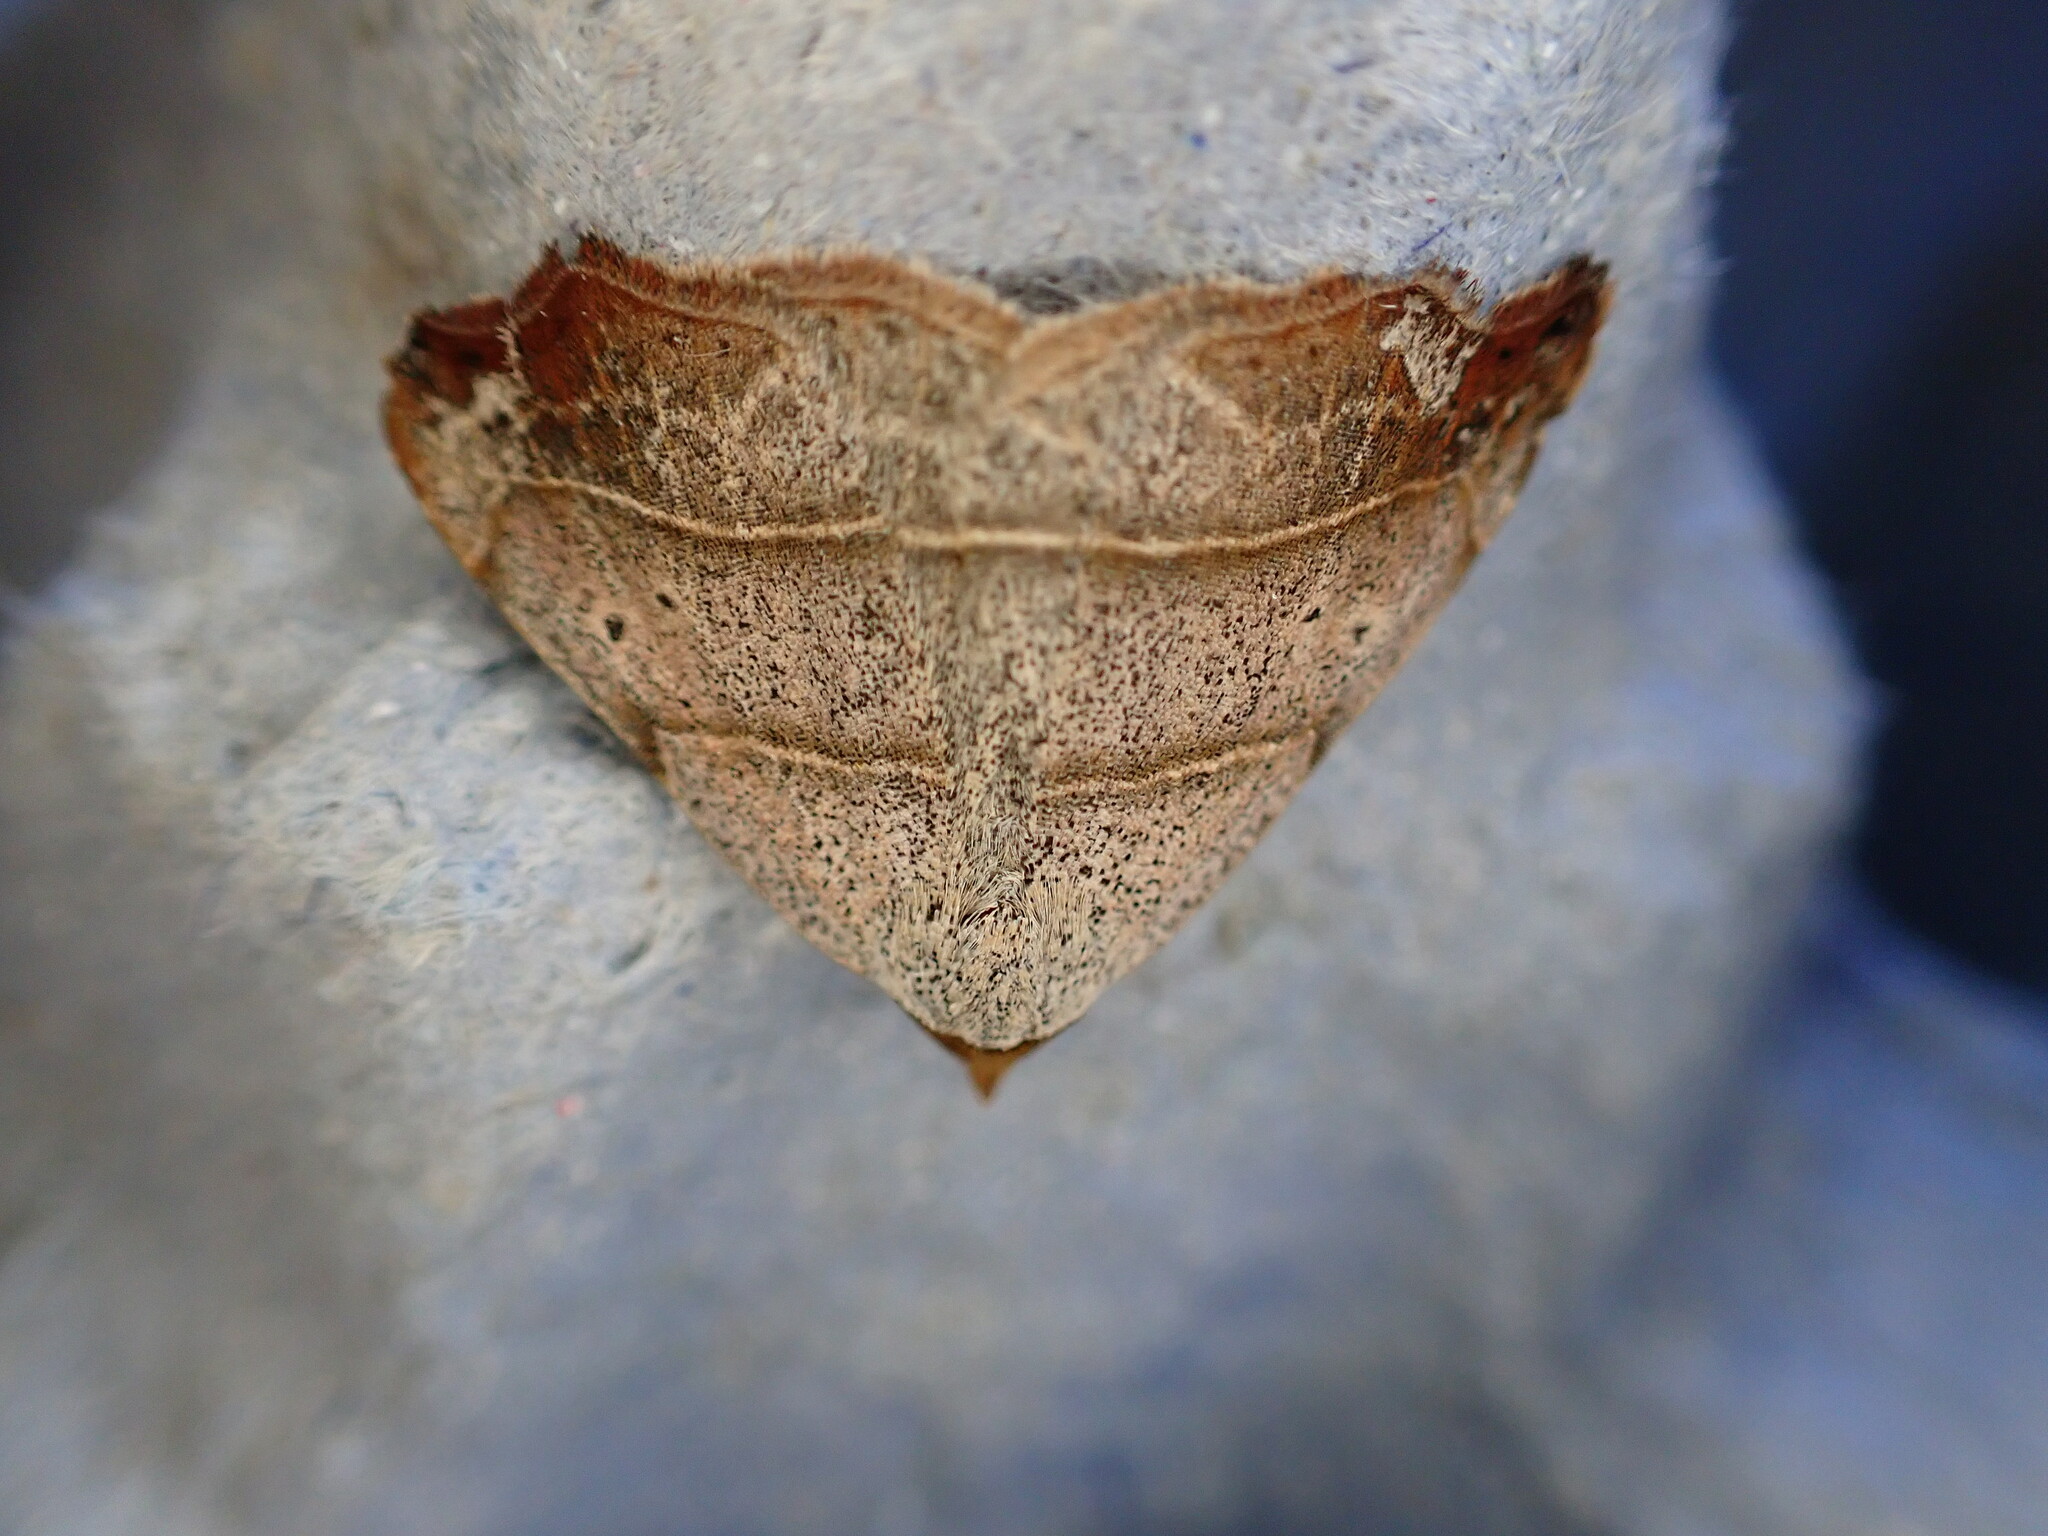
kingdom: Animalia
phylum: Arthropoda
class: Insecta
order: Lepidoptera
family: Erebidae
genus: Laspeyria
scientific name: Laspeyria flexula
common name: Beautiful hook-tip
